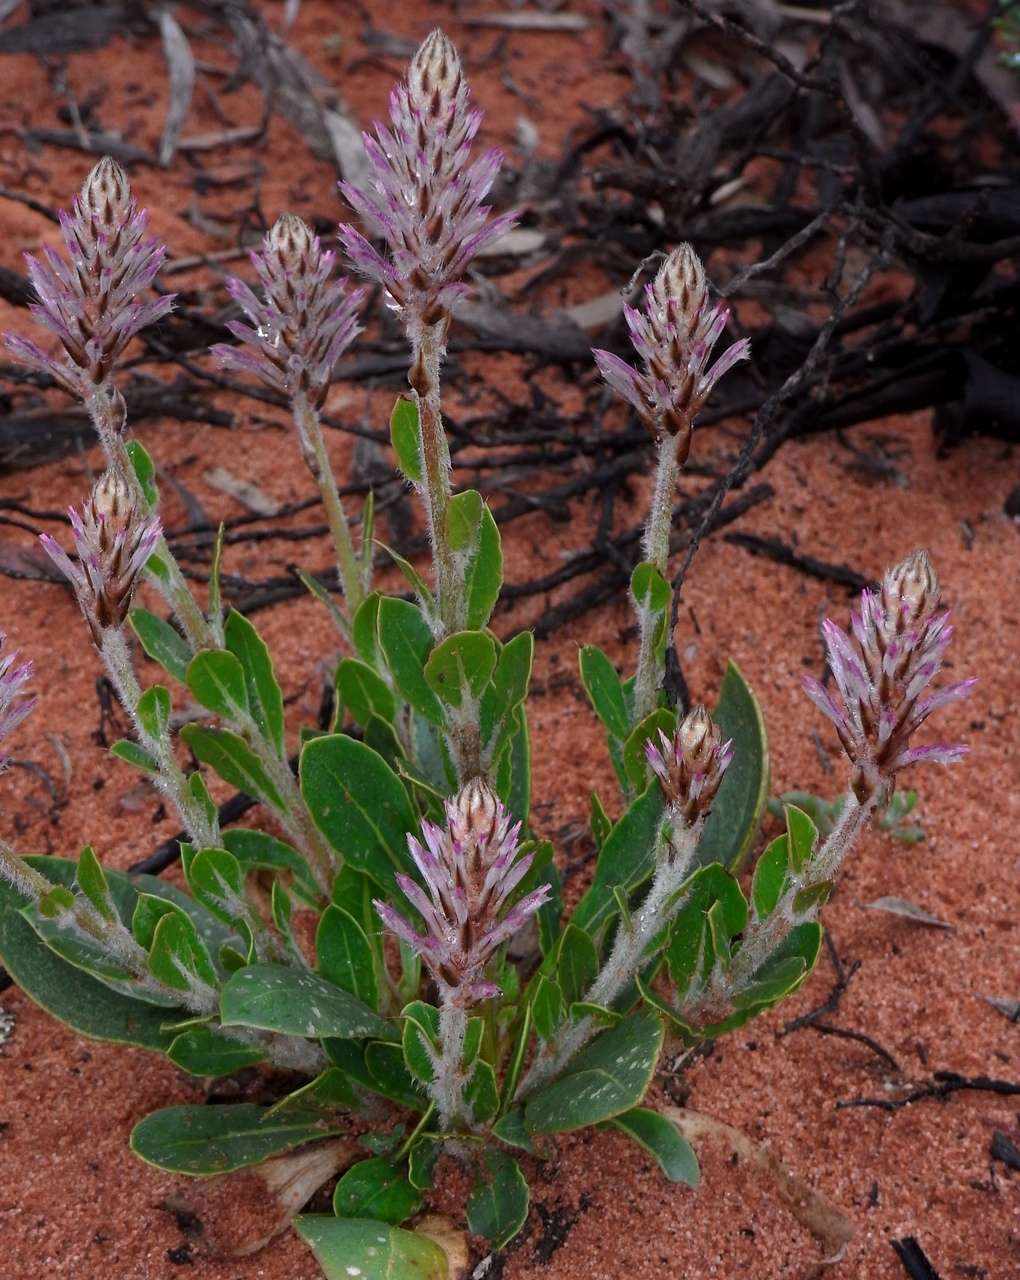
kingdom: Plantae
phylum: Tracheophyta
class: Magnoliopsida
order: Caryophyllales
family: Amaranthaceae
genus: Ptilotus
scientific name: Ptilotus exaltatus
